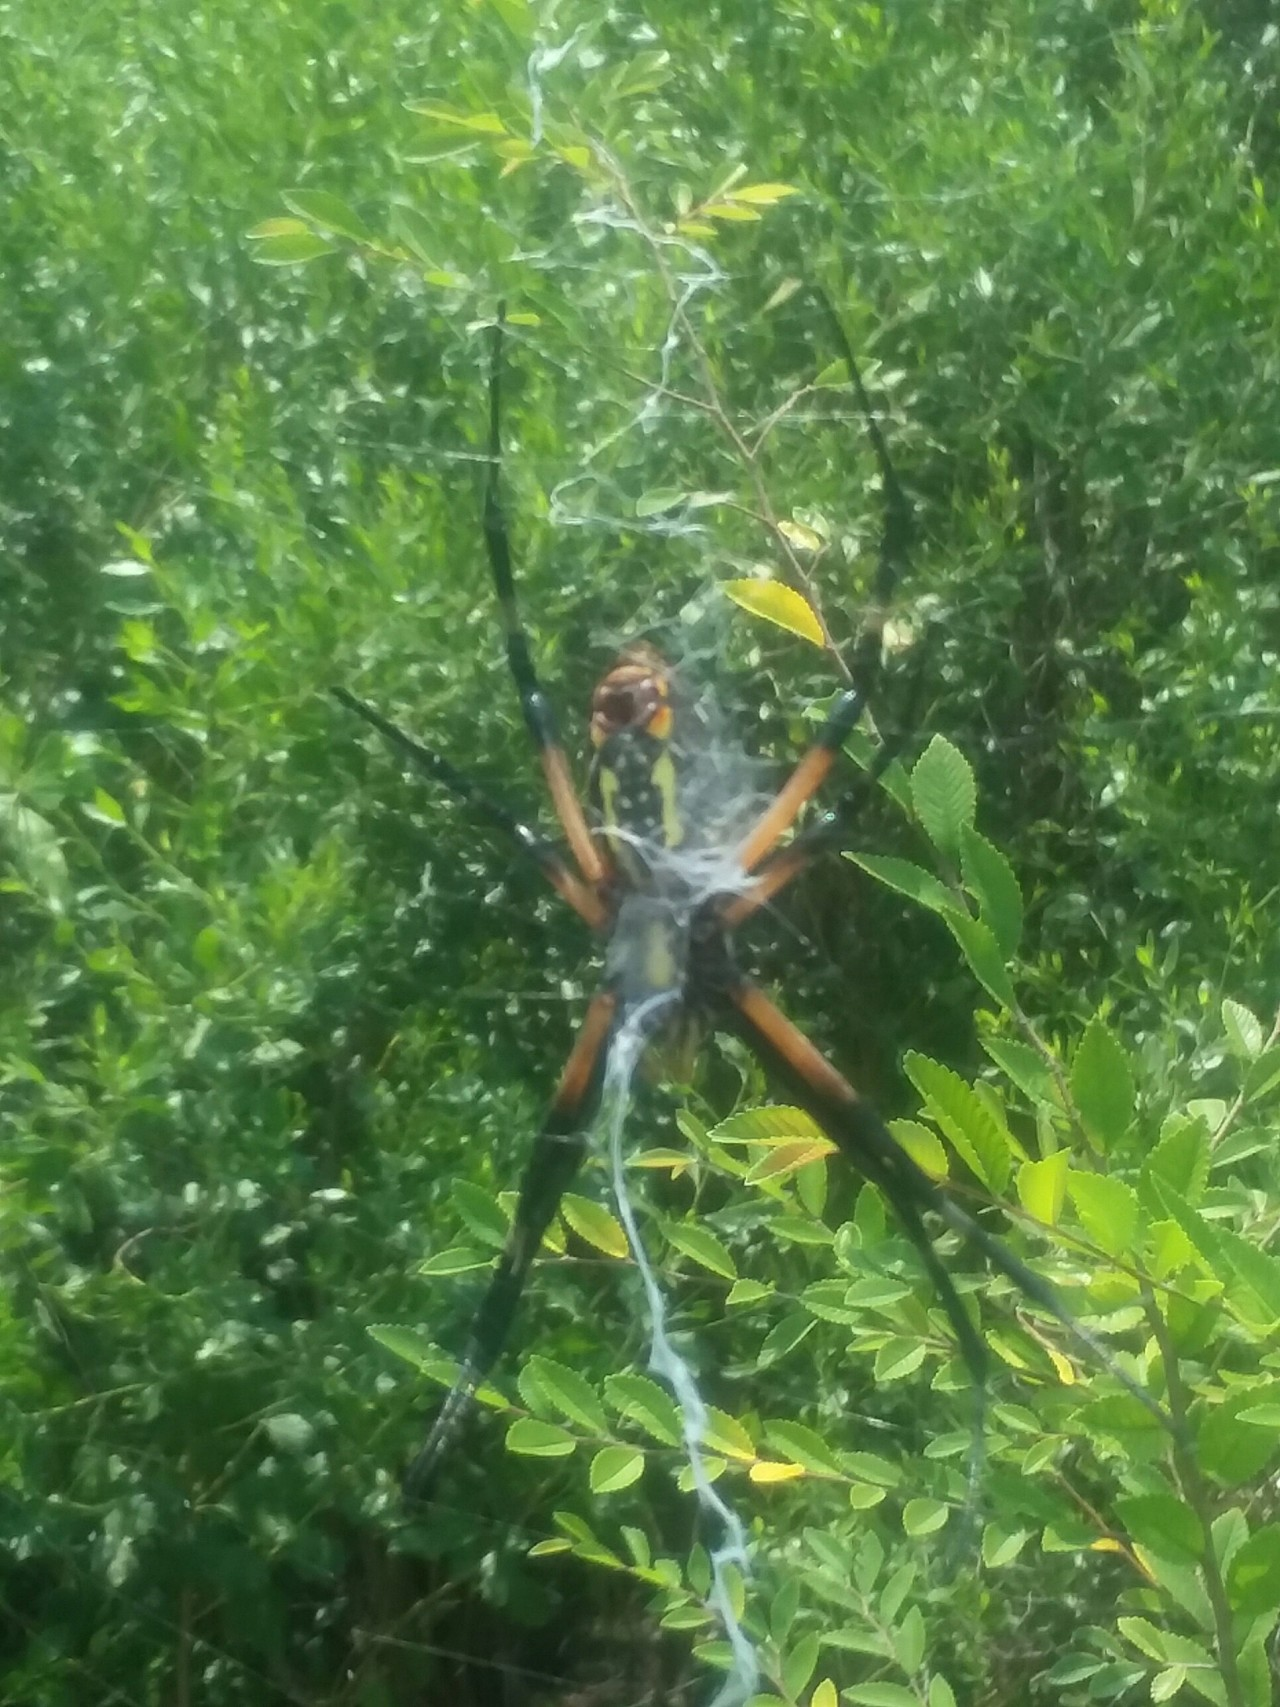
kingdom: Animalia
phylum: Arthropoda
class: Arachnida
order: Araneae
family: Araneidae
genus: Argiope
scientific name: Argiope aurantia
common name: Orb weavers
